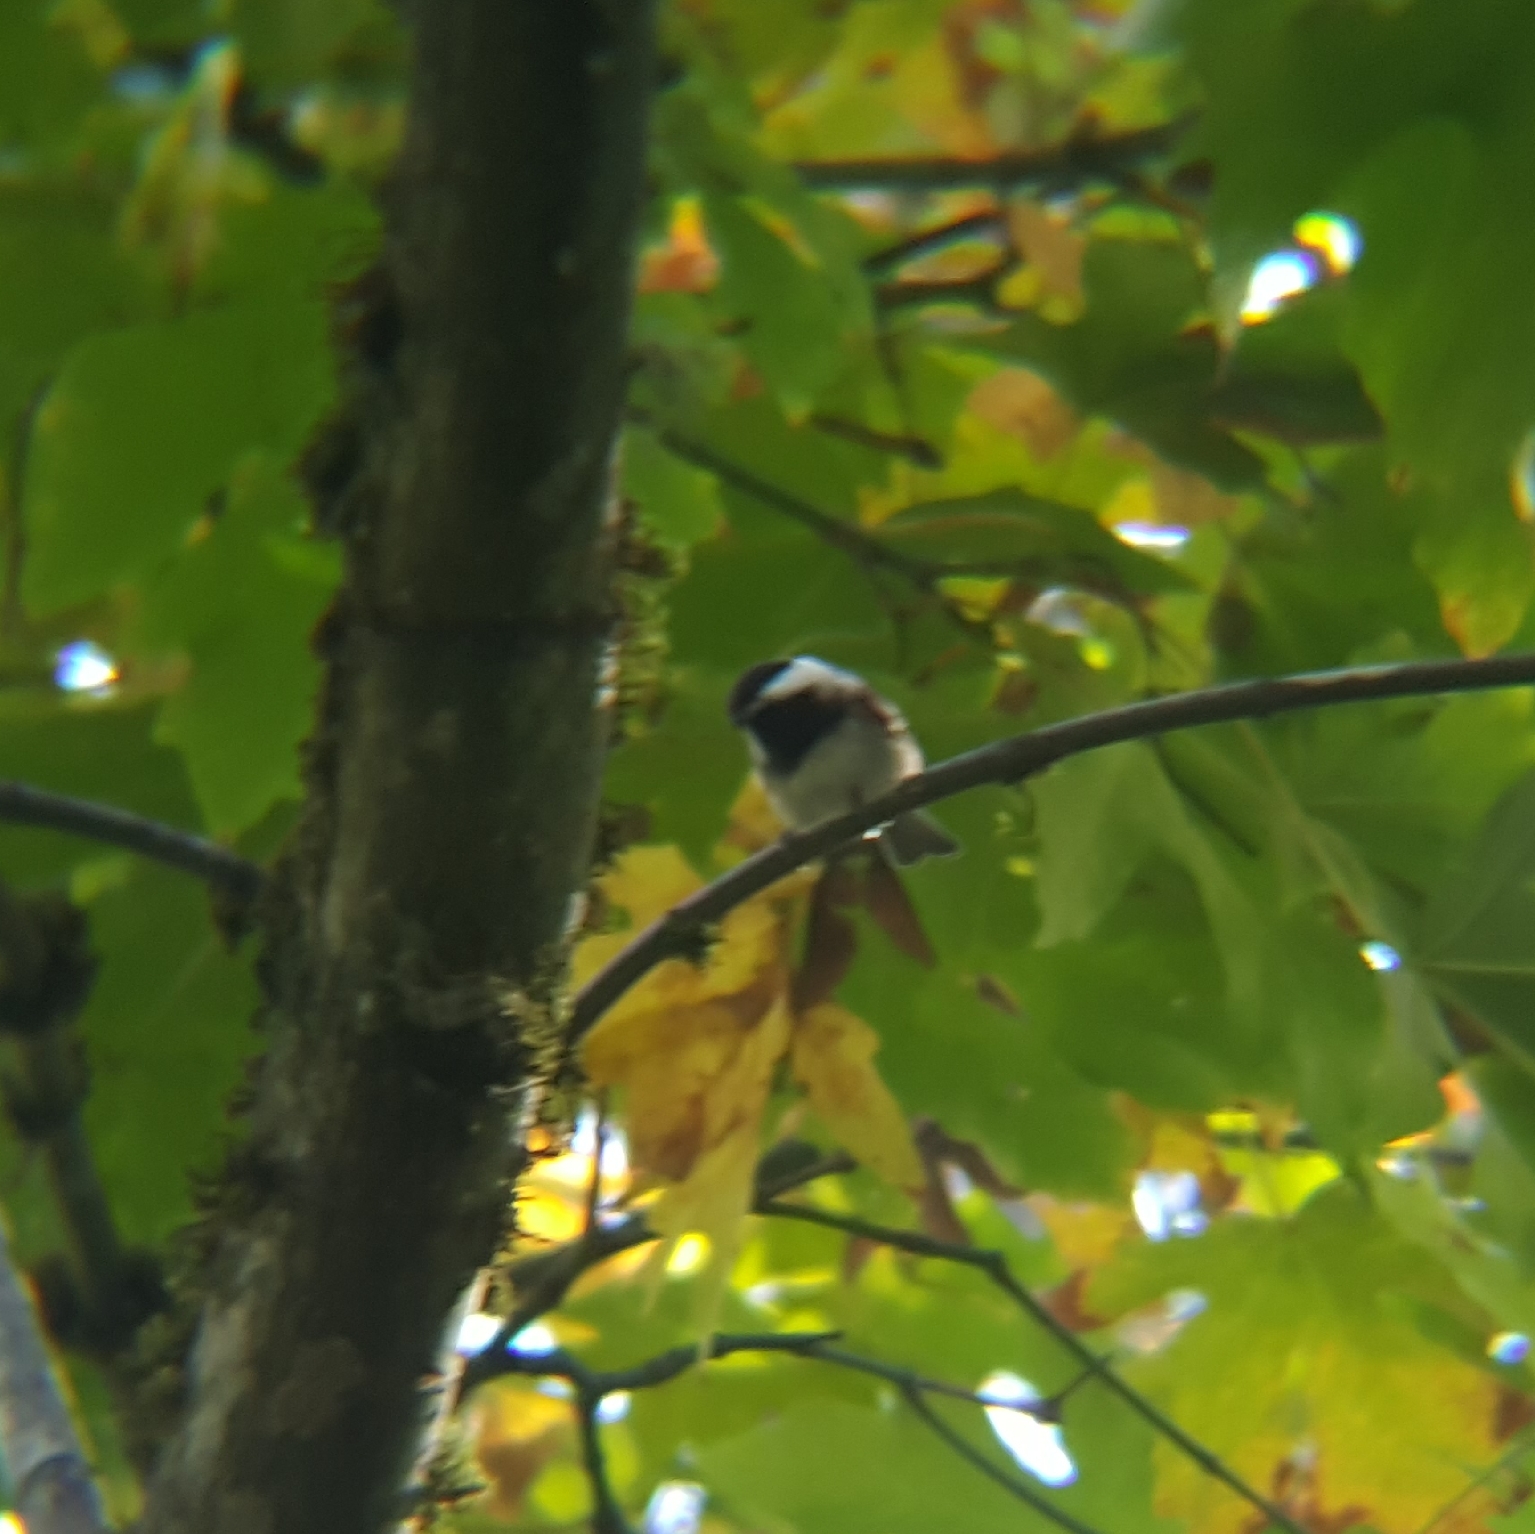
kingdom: Animalia
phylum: Chordata
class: Aves
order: Passeriformes
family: Paridae
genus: Poecile
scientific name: Poecile rufescens
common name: Chestnut-backed chickadee
